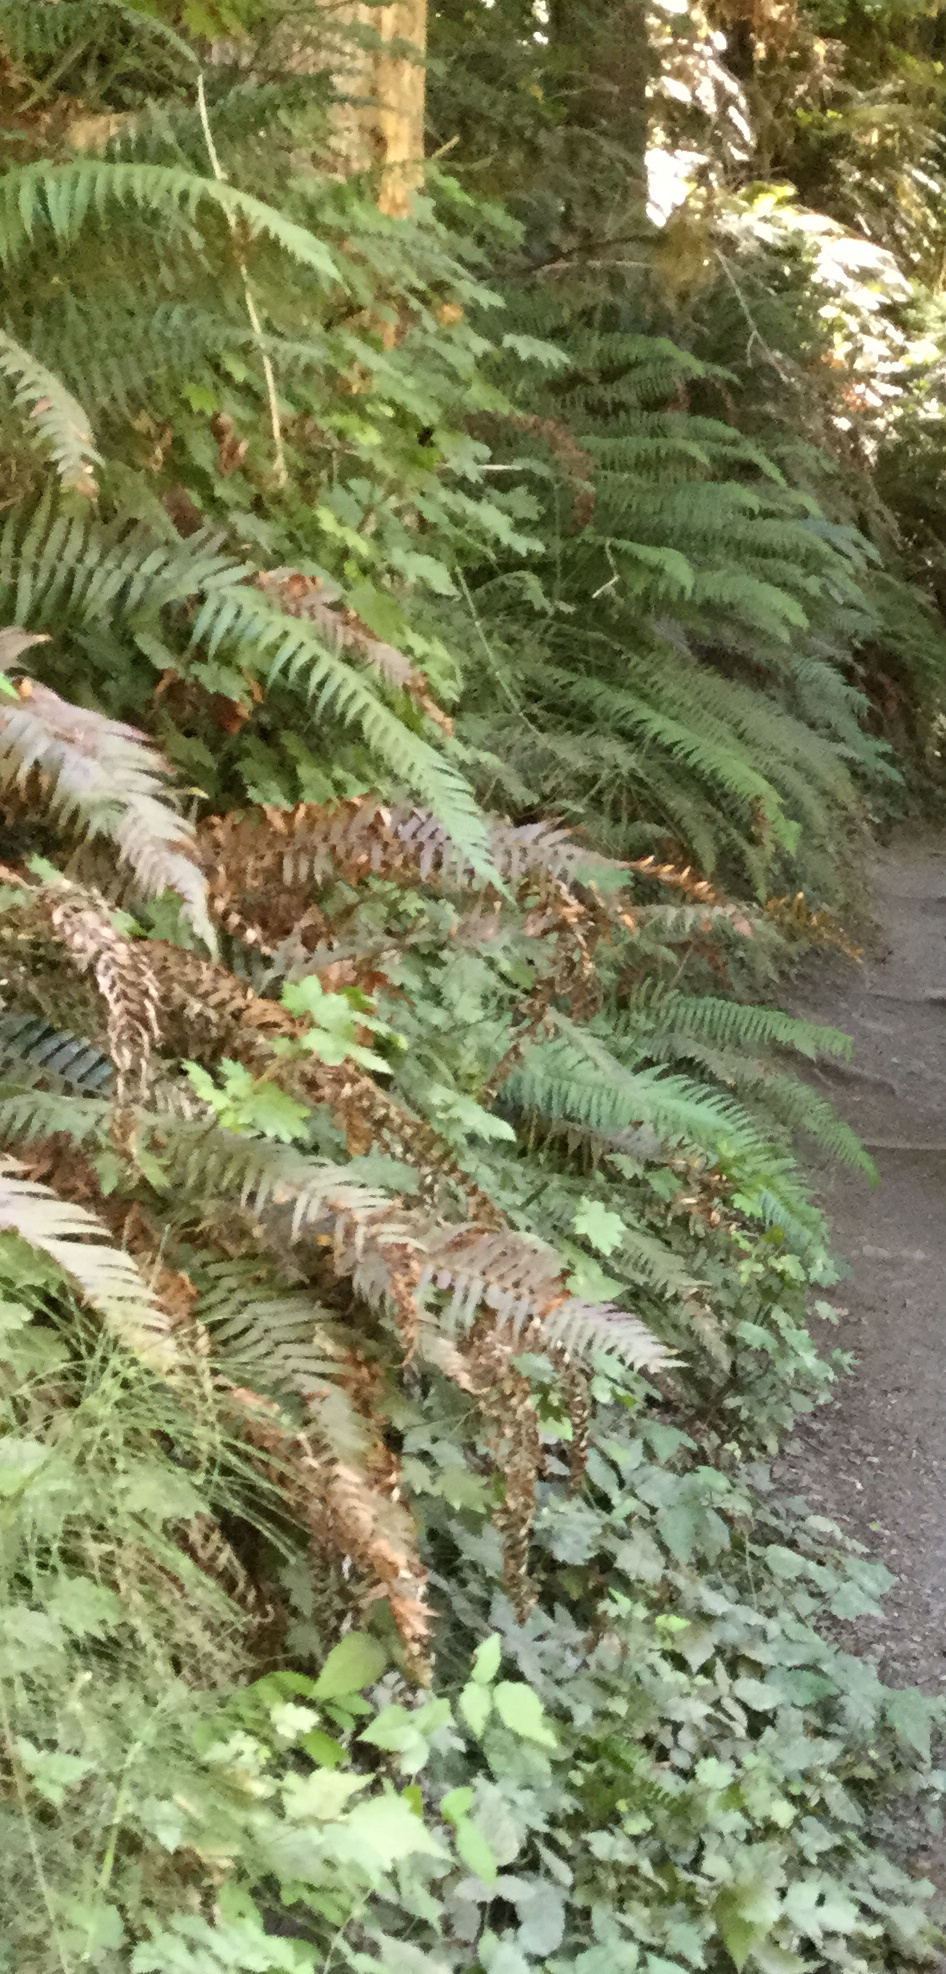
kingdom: Plantae
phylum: Tracheophyta
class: Polypodiopsida
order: Polypodiales
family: Dryopteridaceae
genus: Polystichum
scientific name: Polystichum munitum
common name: Western sword-fern
